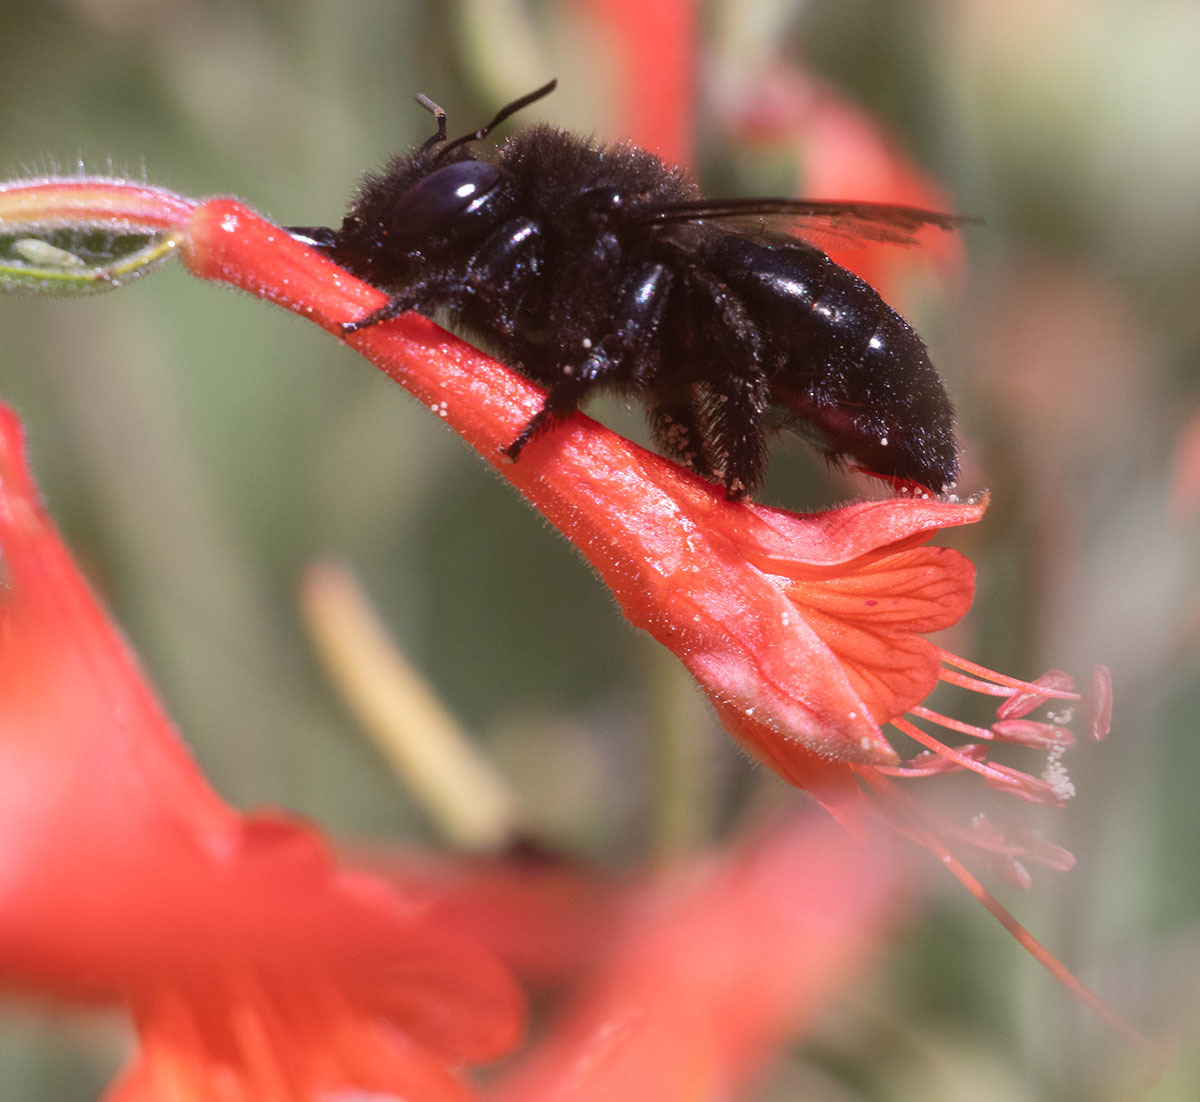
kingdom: Animalia
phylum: Arthropoda
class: Insecta
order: Hymenoptera
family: Apidae
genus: Xylocopa
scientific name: Xylocopa tabaniformis
